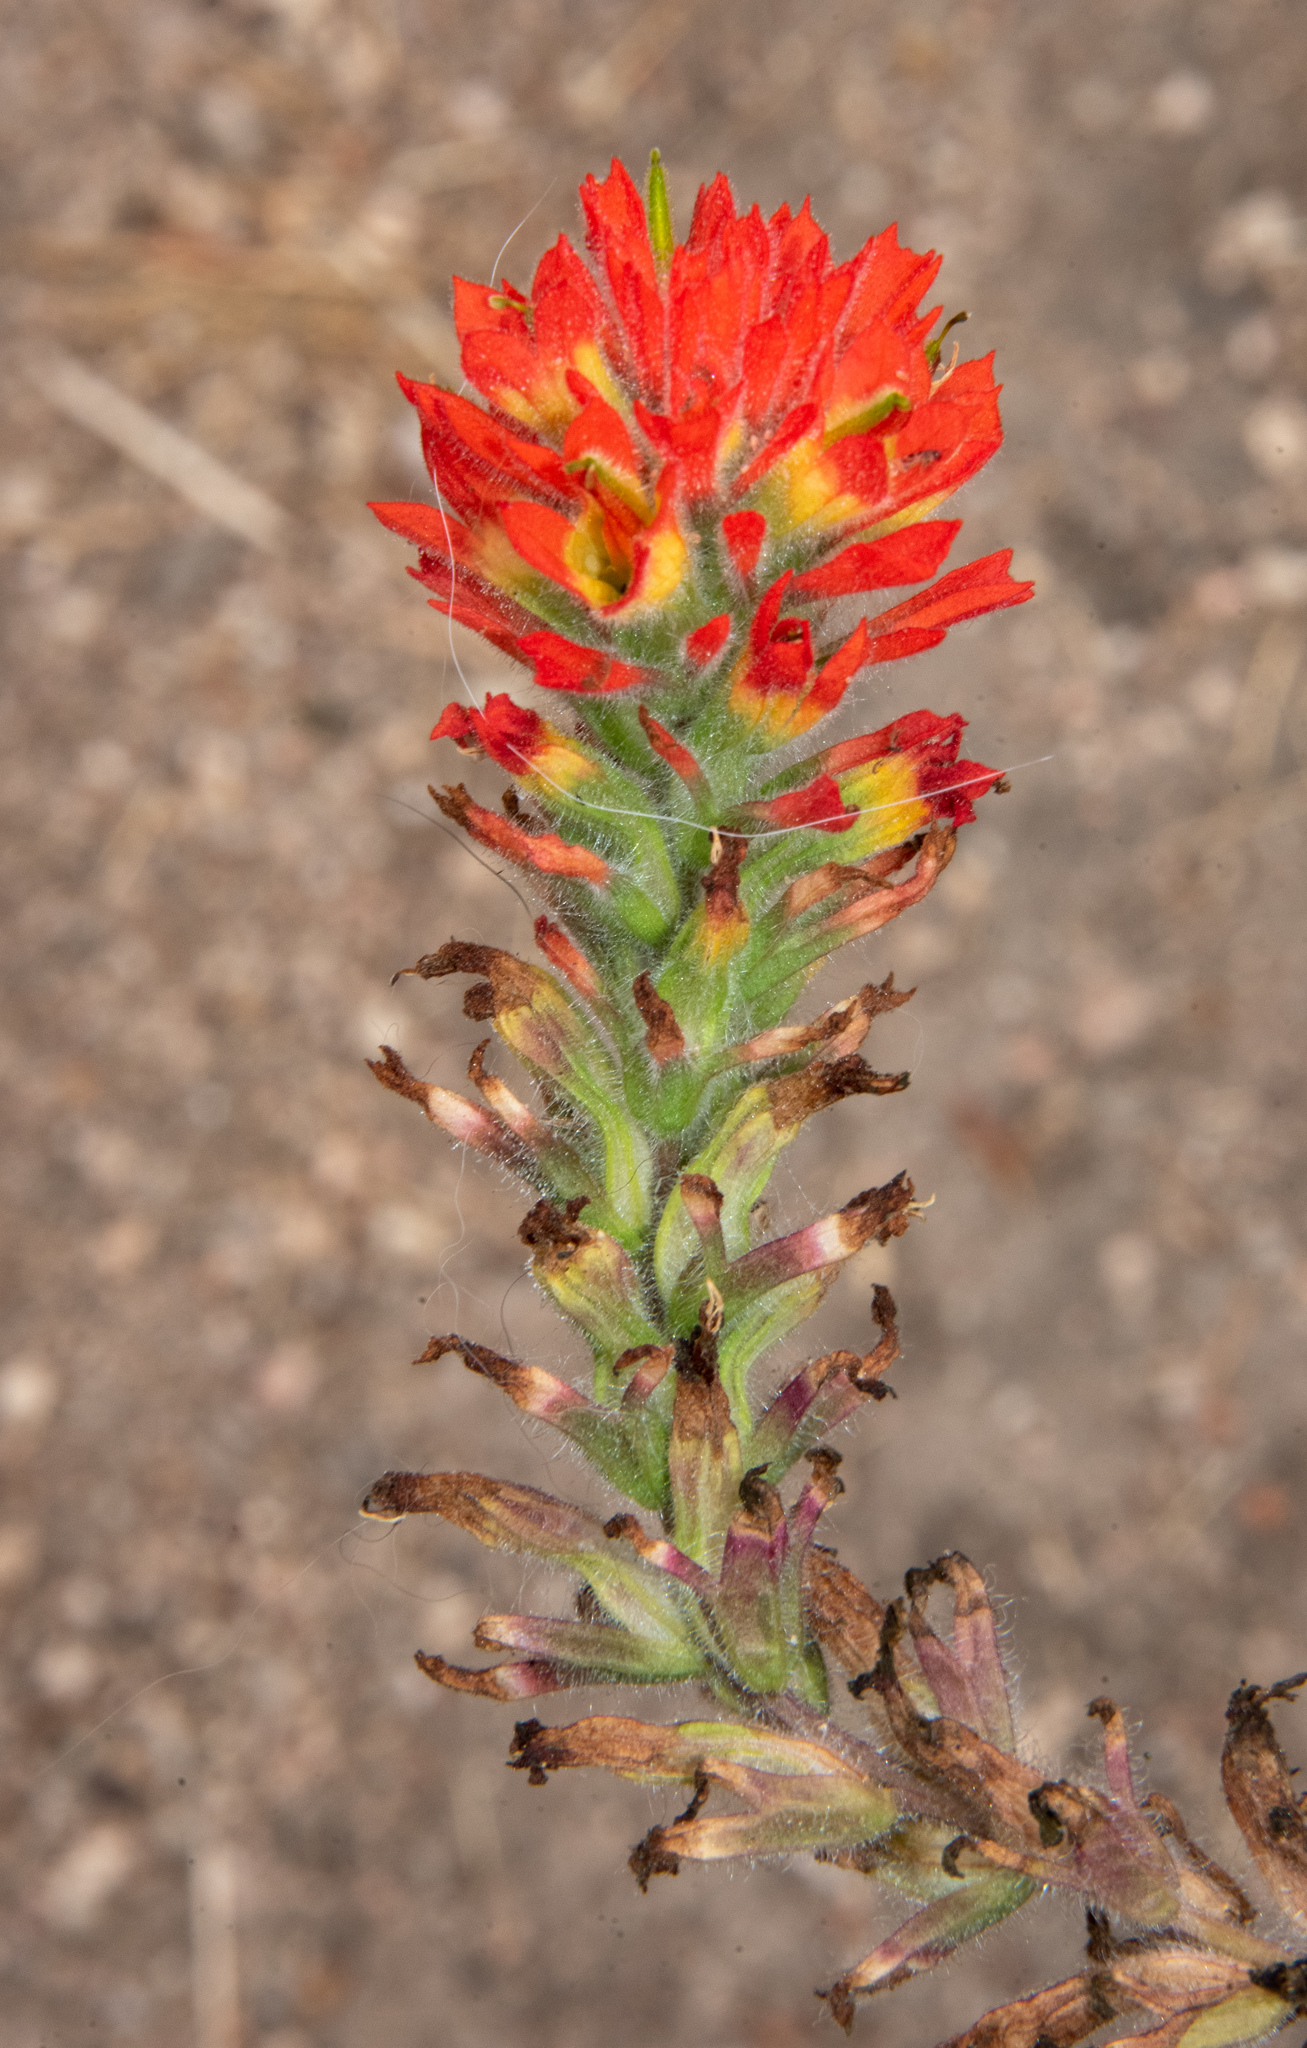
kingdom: Plantae
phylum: Tracheophyta
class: Magnoliopsida
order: Lamiales
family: Orobanchaceae
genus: Castilleja
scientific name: Castilleja affinis
